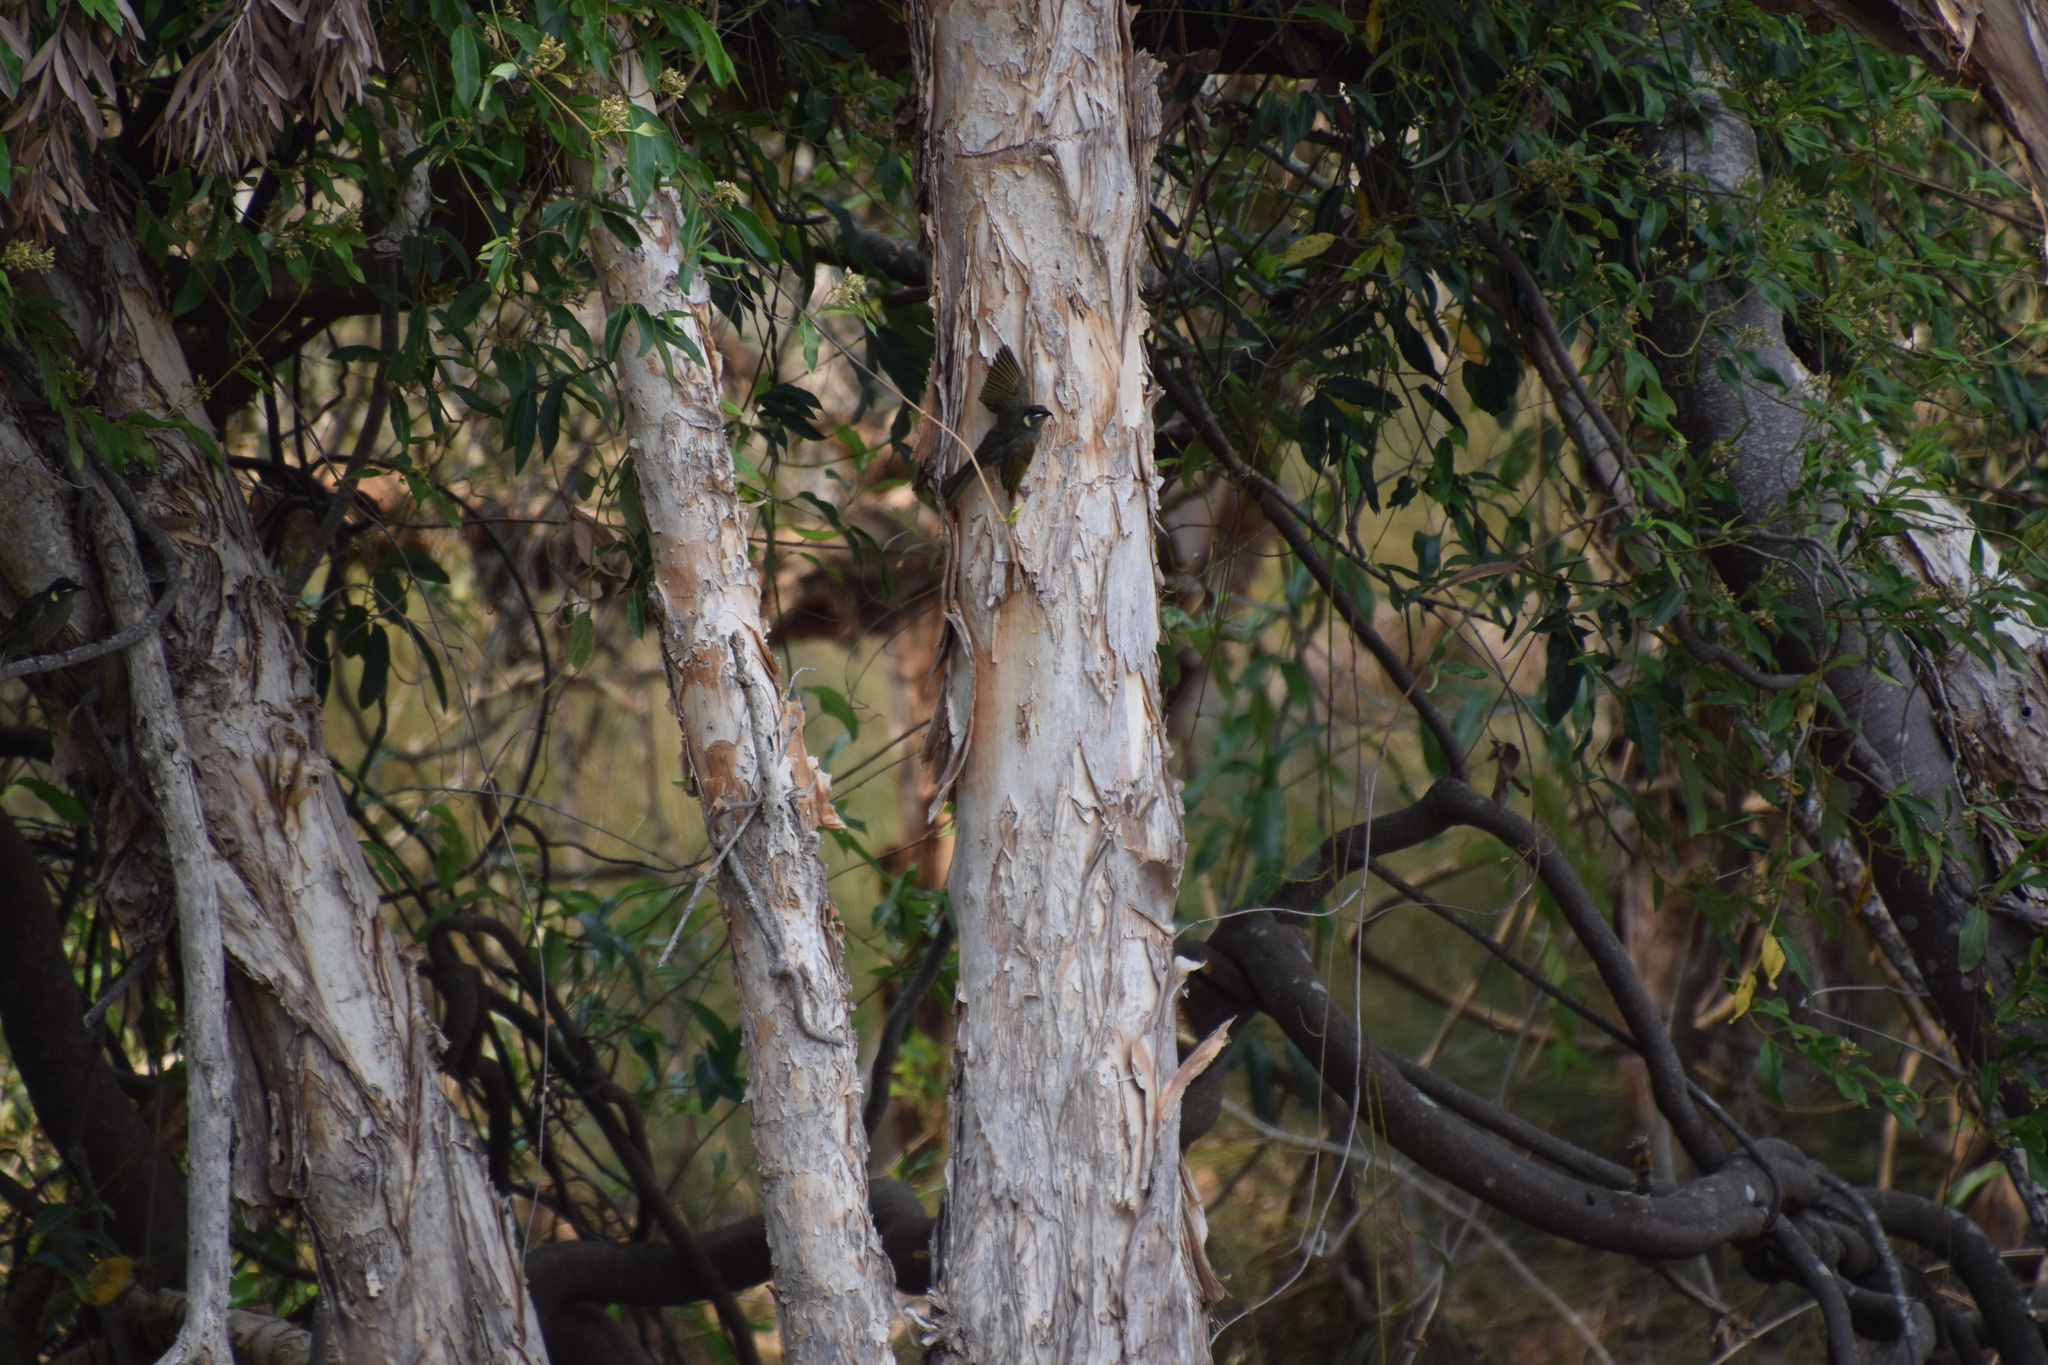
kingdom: Animalia
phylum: Chordata
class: Aves
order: Passeriformes
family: Meliphagidae
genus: Meliphaga
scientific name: Meliphaga lewinii
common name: Lewin's honeyeater
